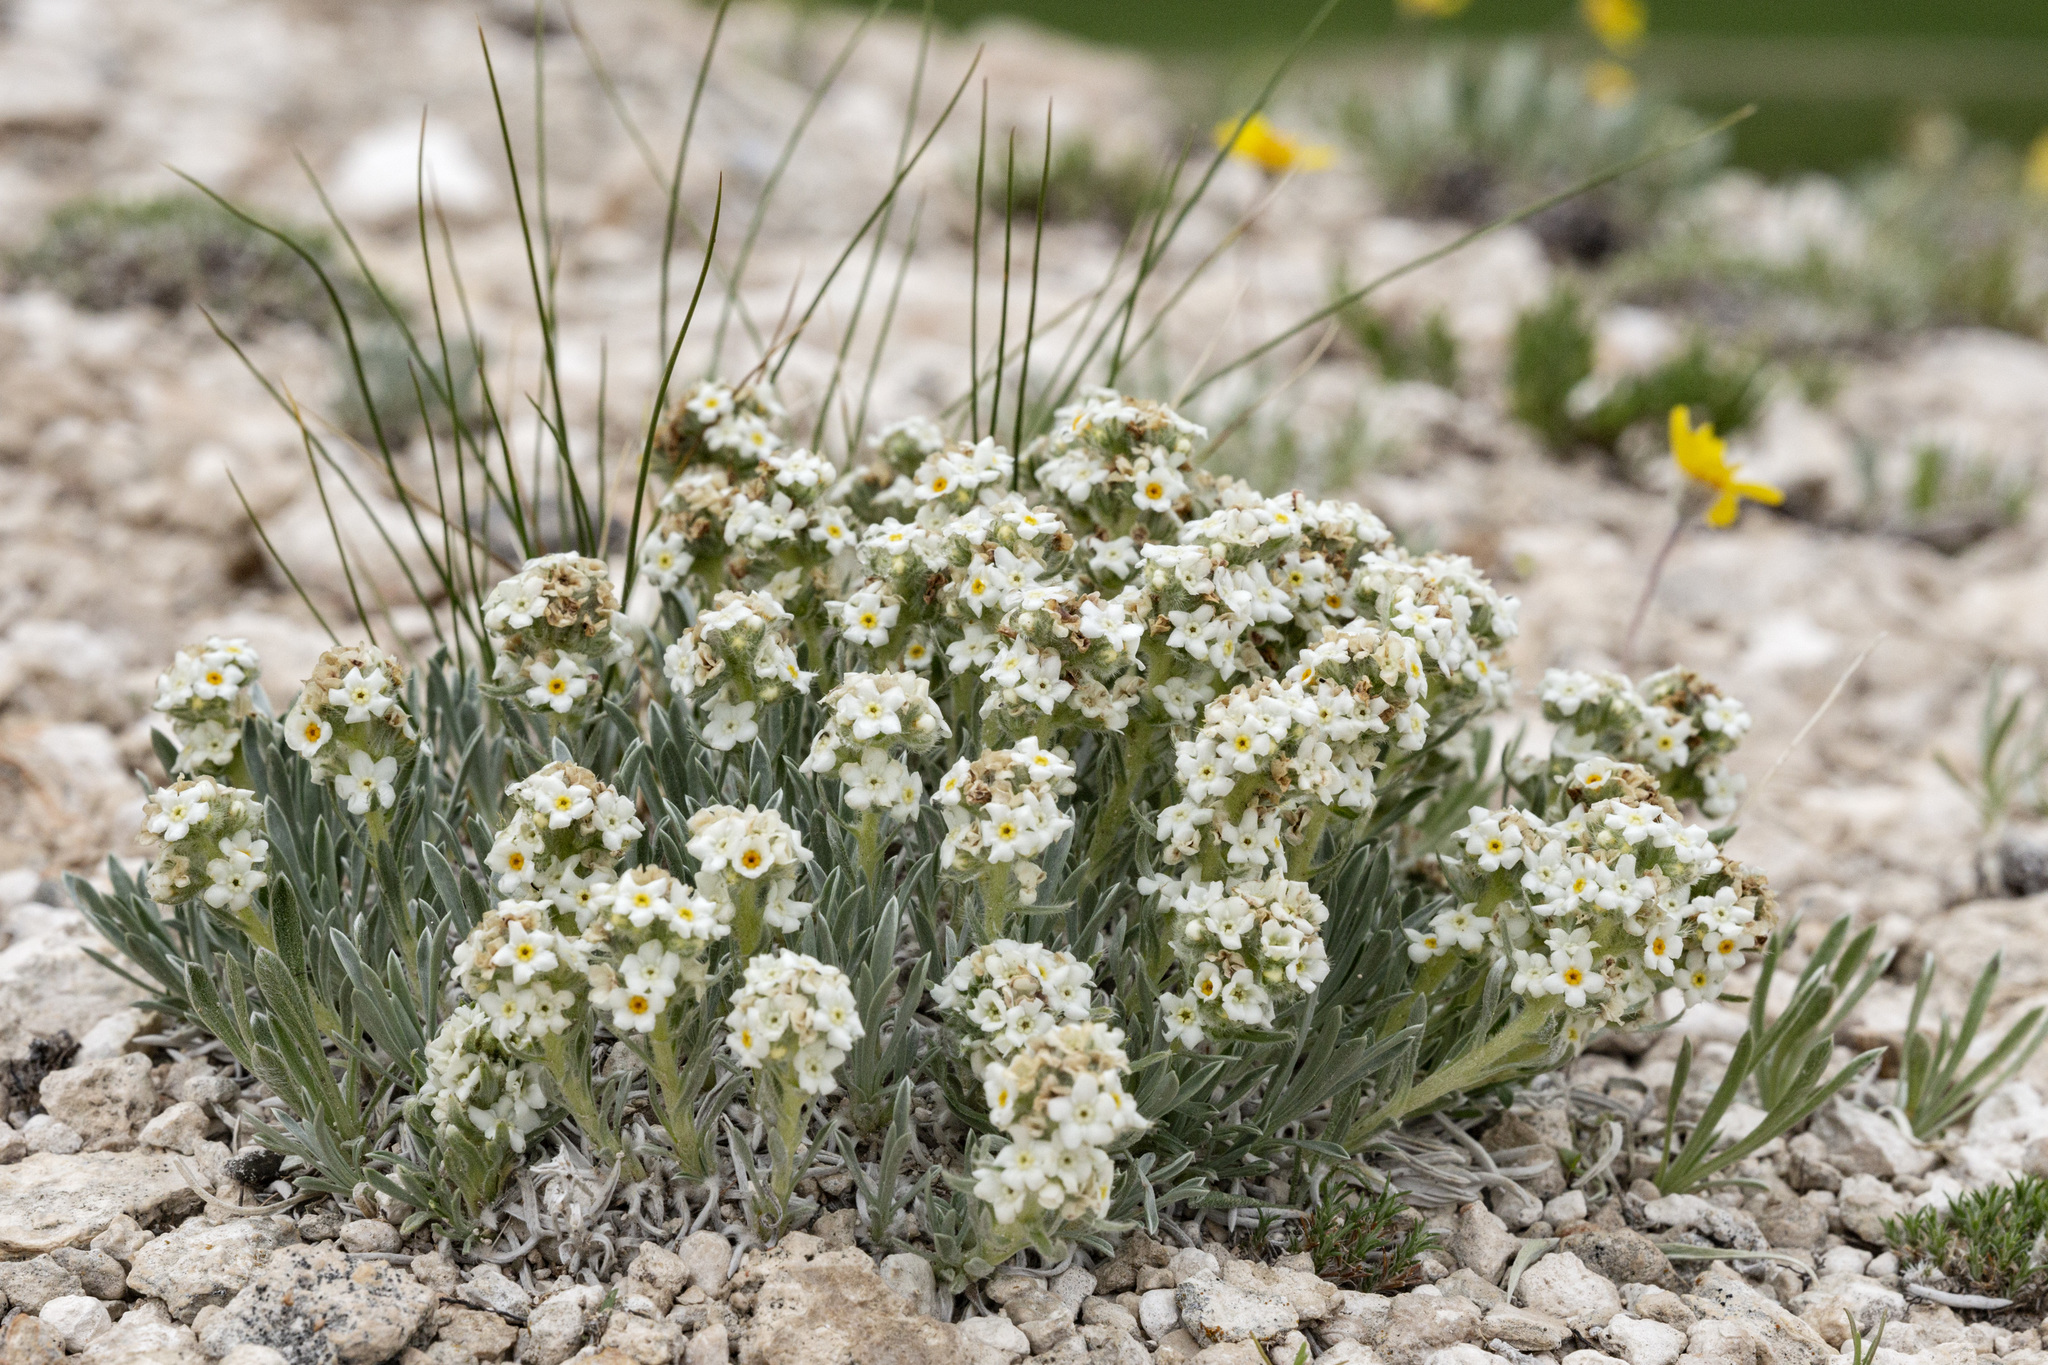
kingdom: Plantae
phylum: Tracheophyta
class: Magnoliopsida
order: Boraginales
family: Boraginaceae
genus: Oreocarya
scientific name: Oreocarya cana
